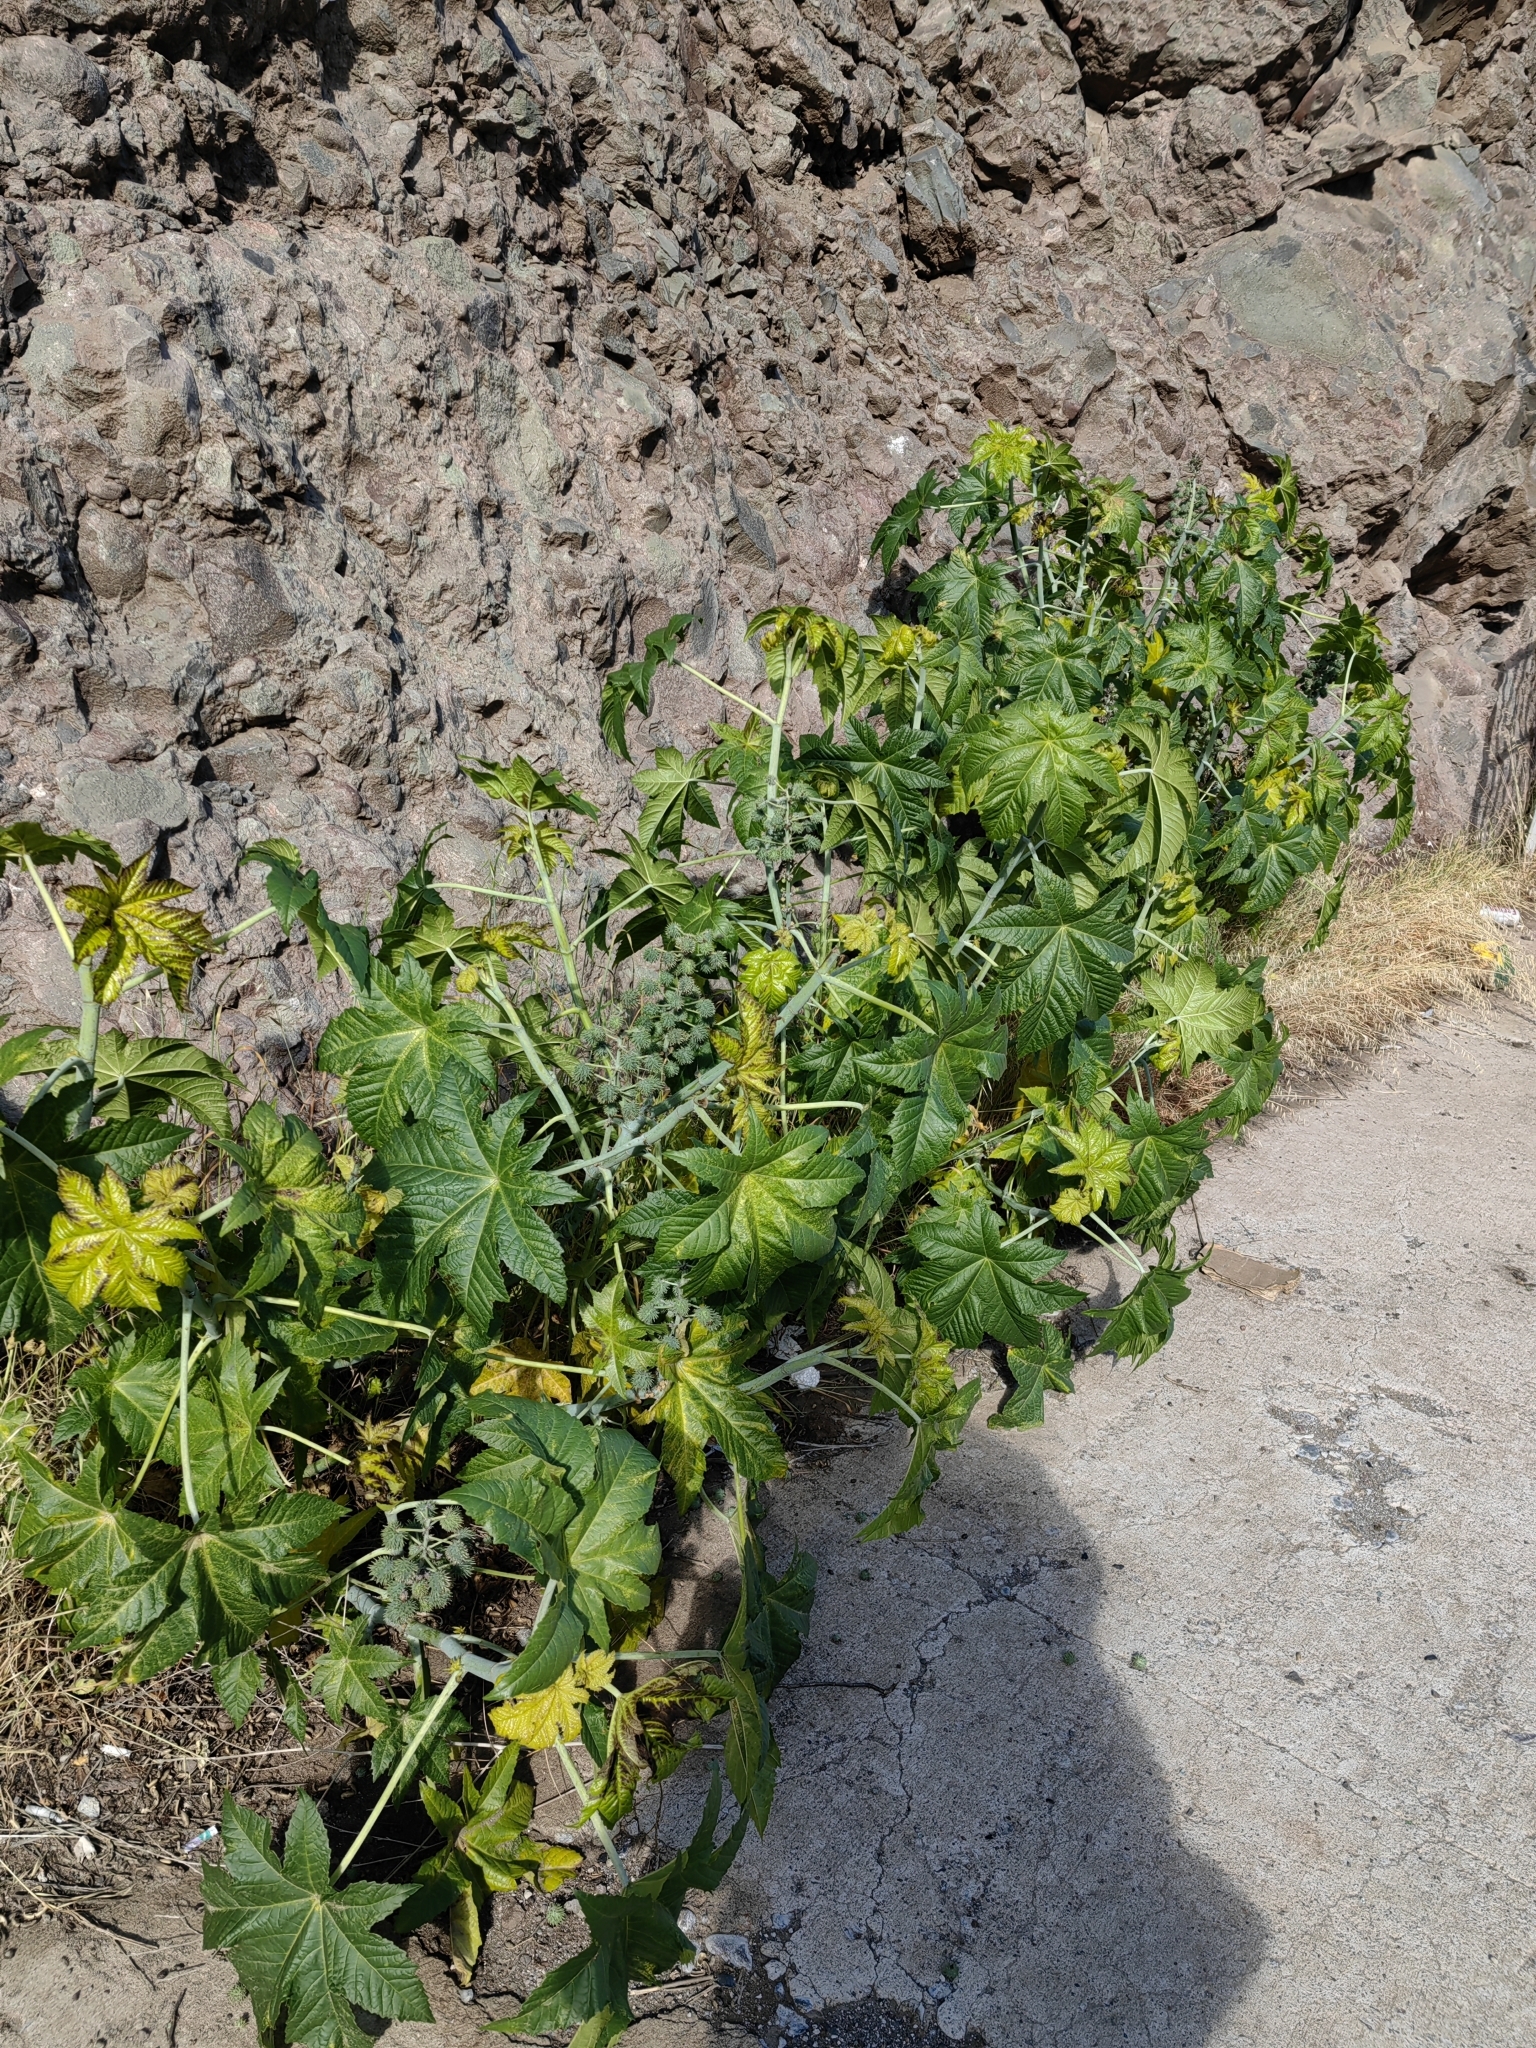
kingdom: Plantae
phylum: Tracheophyta
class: Magnoliopsida
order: Malpighiales
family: Euphorbiaceae
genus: Ricinus
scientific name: Ricinus communis
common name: Castor-oil-plant
